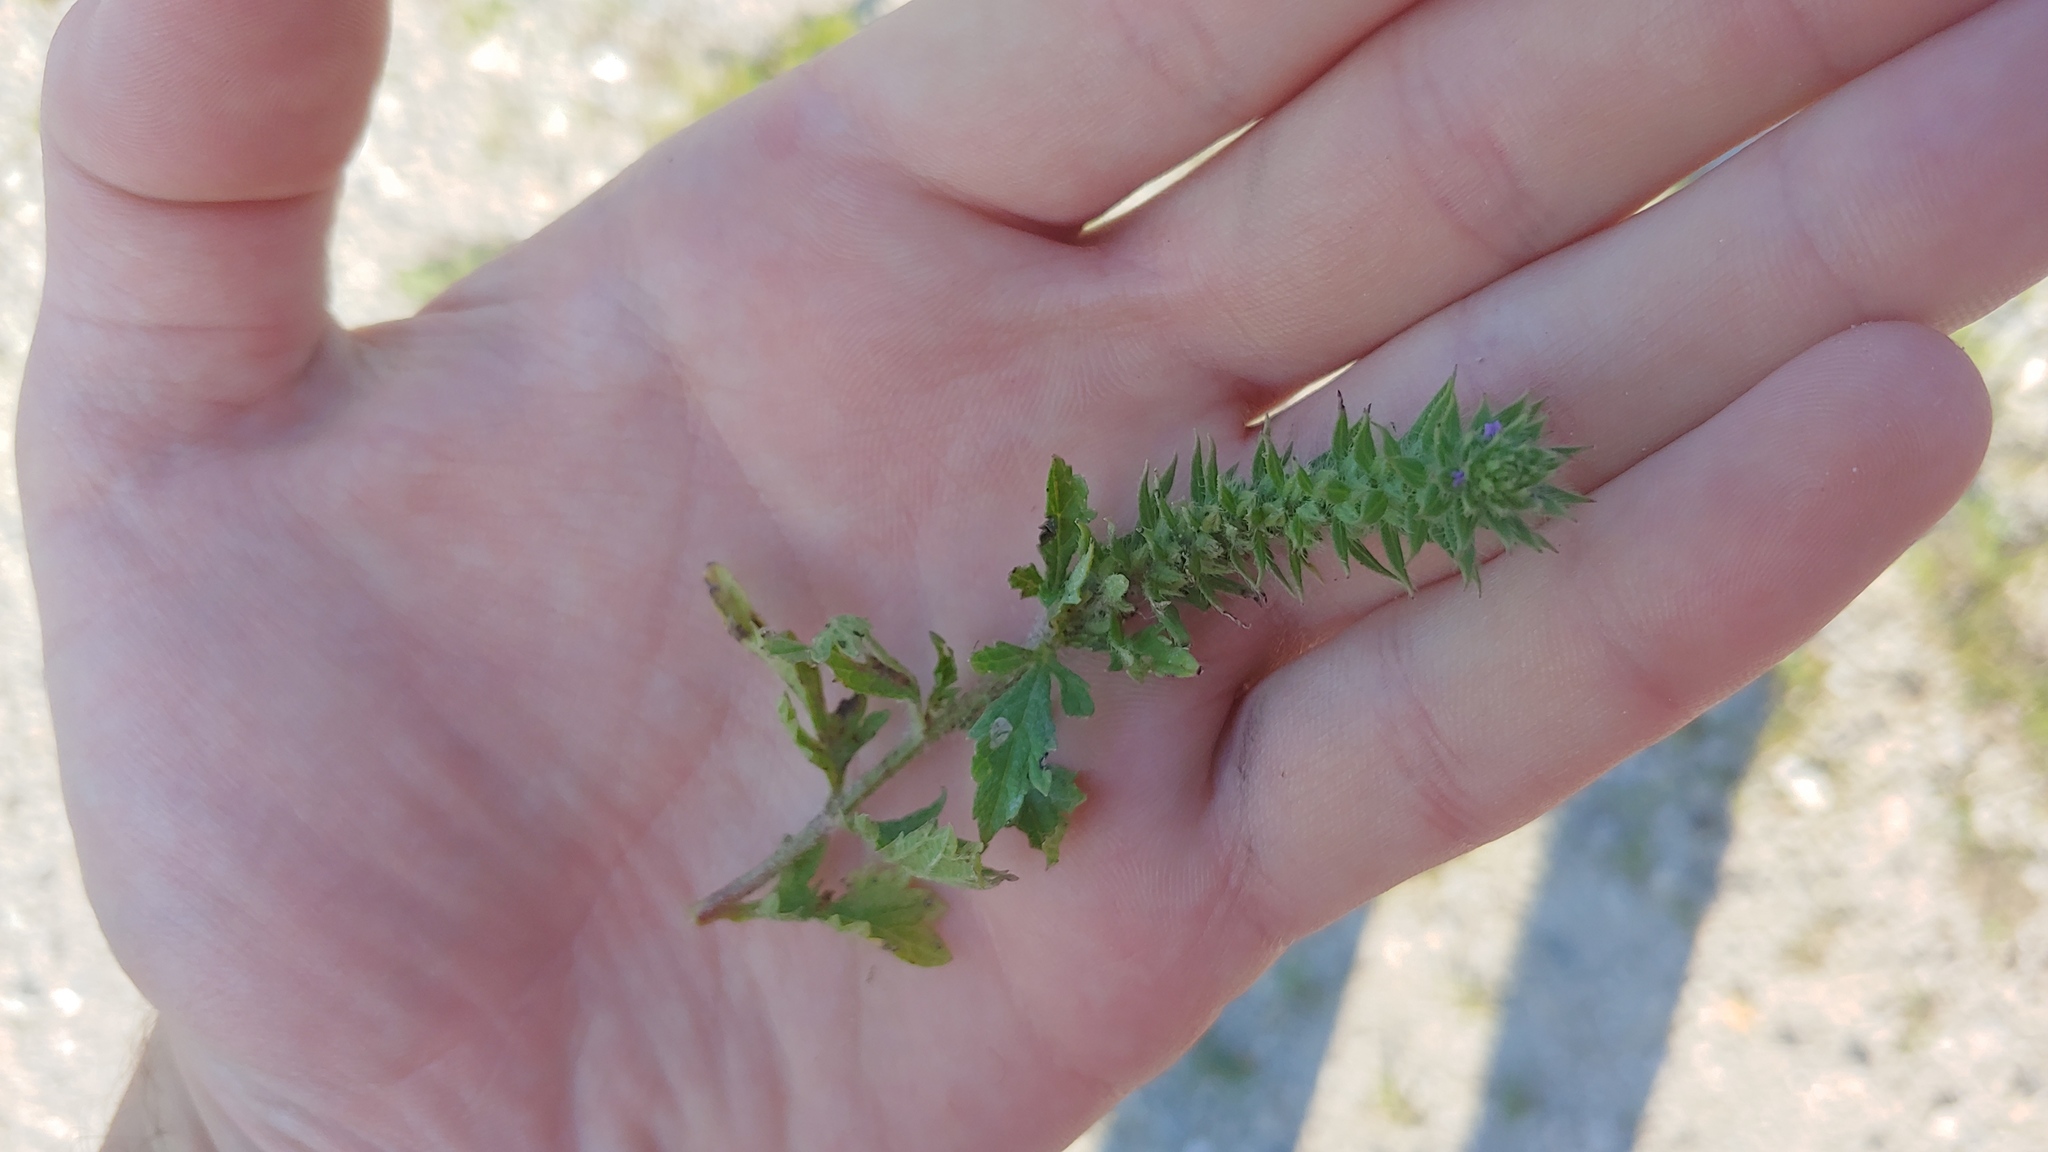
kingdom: Plantae
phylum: Tracheophyta
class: Magnoliopsida
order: Lamiales
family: Verbenaceae
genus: Verbena
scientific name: Verbena bracteata
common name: Bracted vervain
